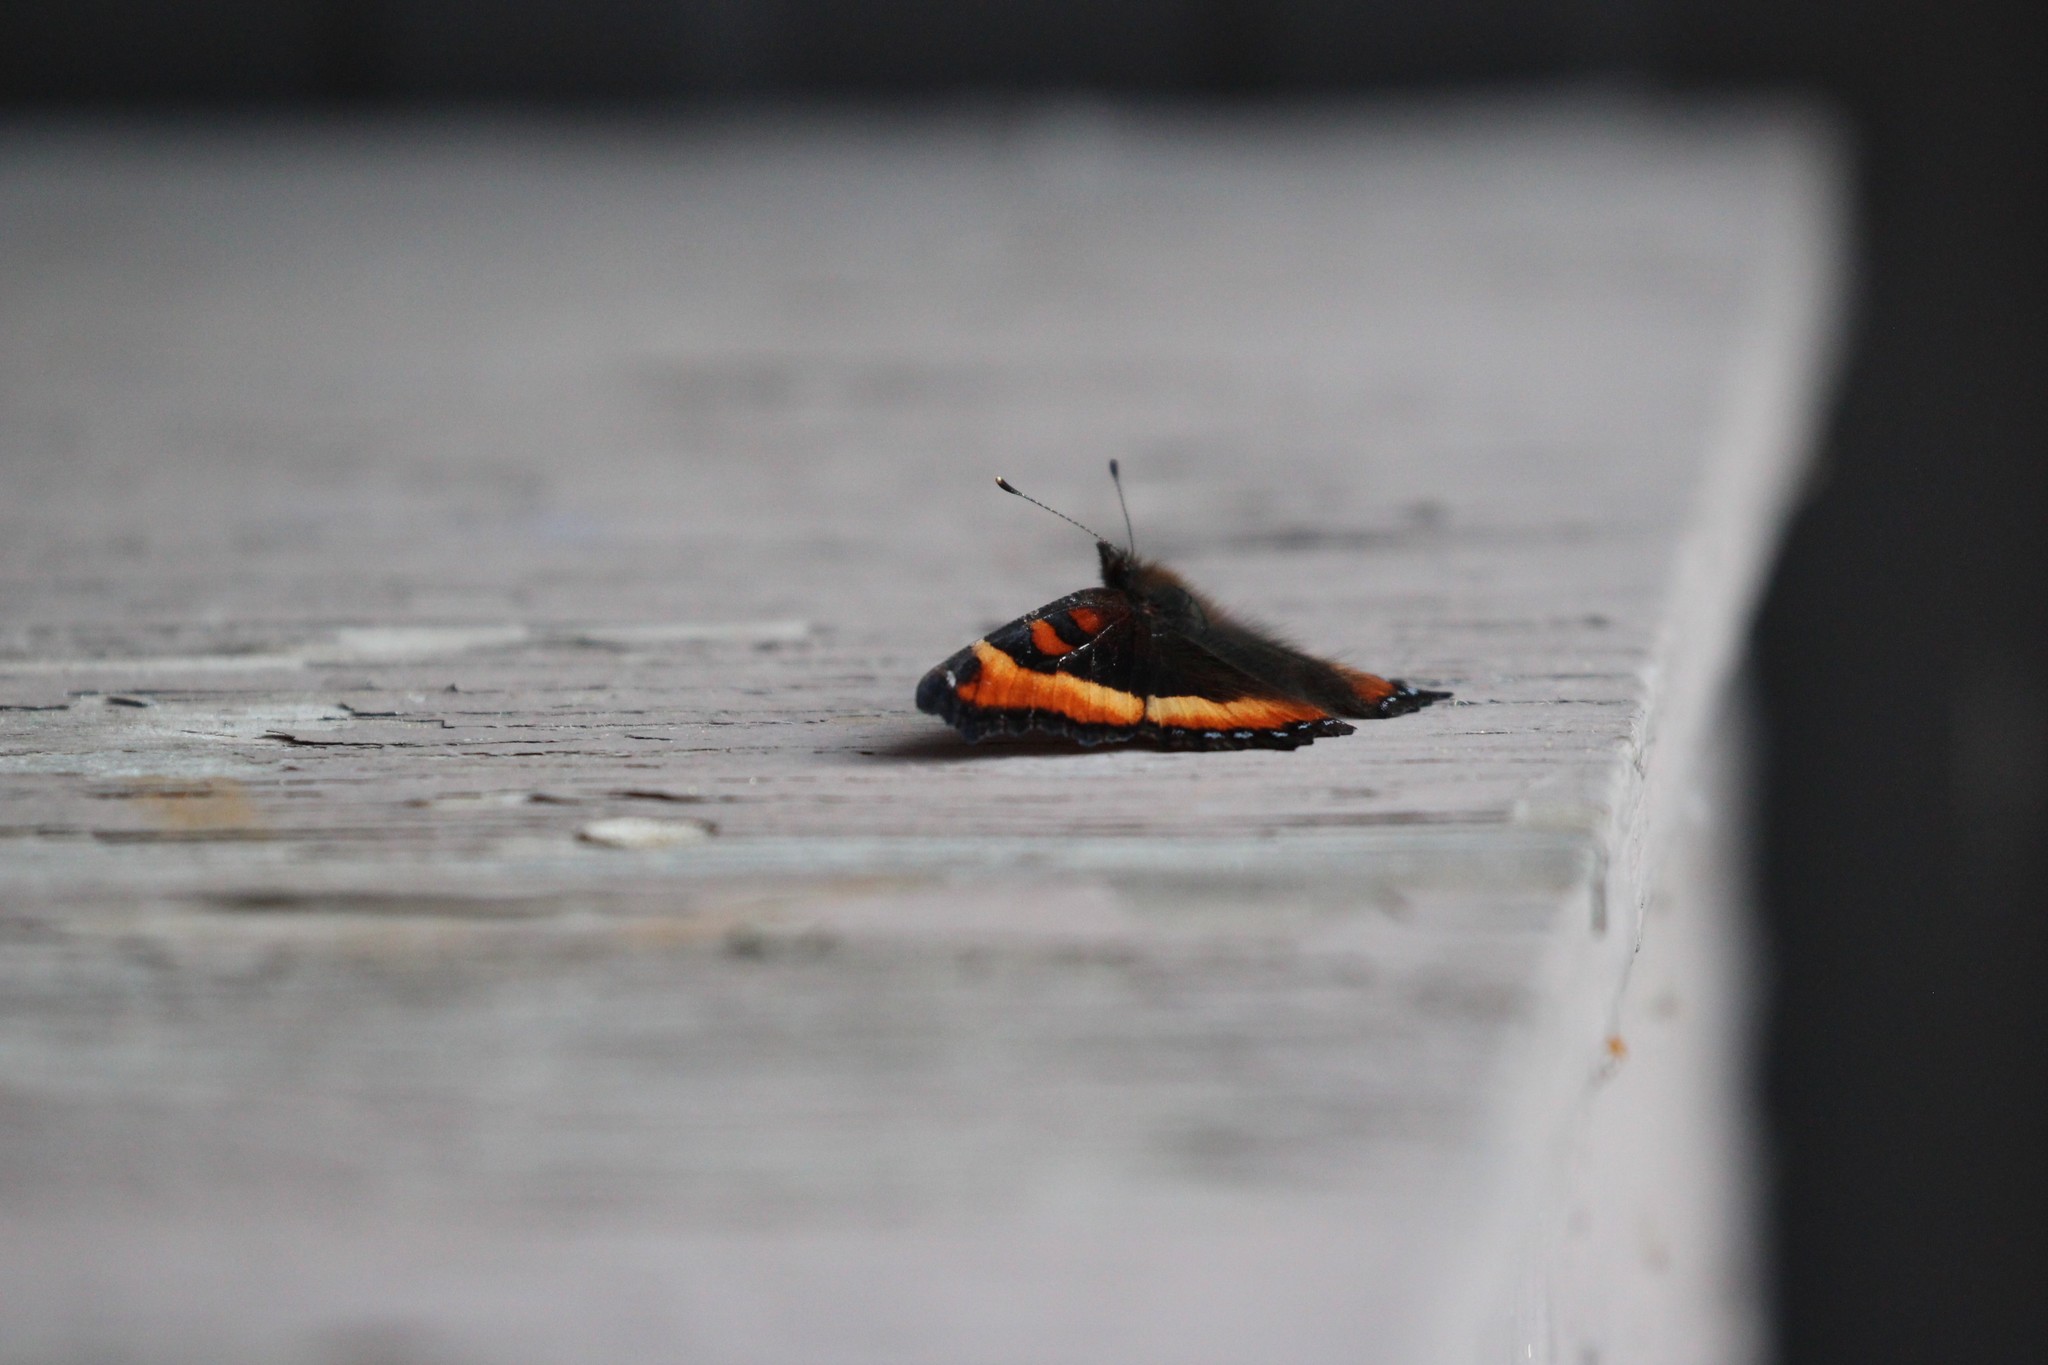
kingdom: Animalia
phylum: Arthropoda
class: Insecta
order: Lepidoptera
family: Nymphalidae
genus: Aglais
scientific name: Aglais milberti
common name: Milbert's tortoiseshell
